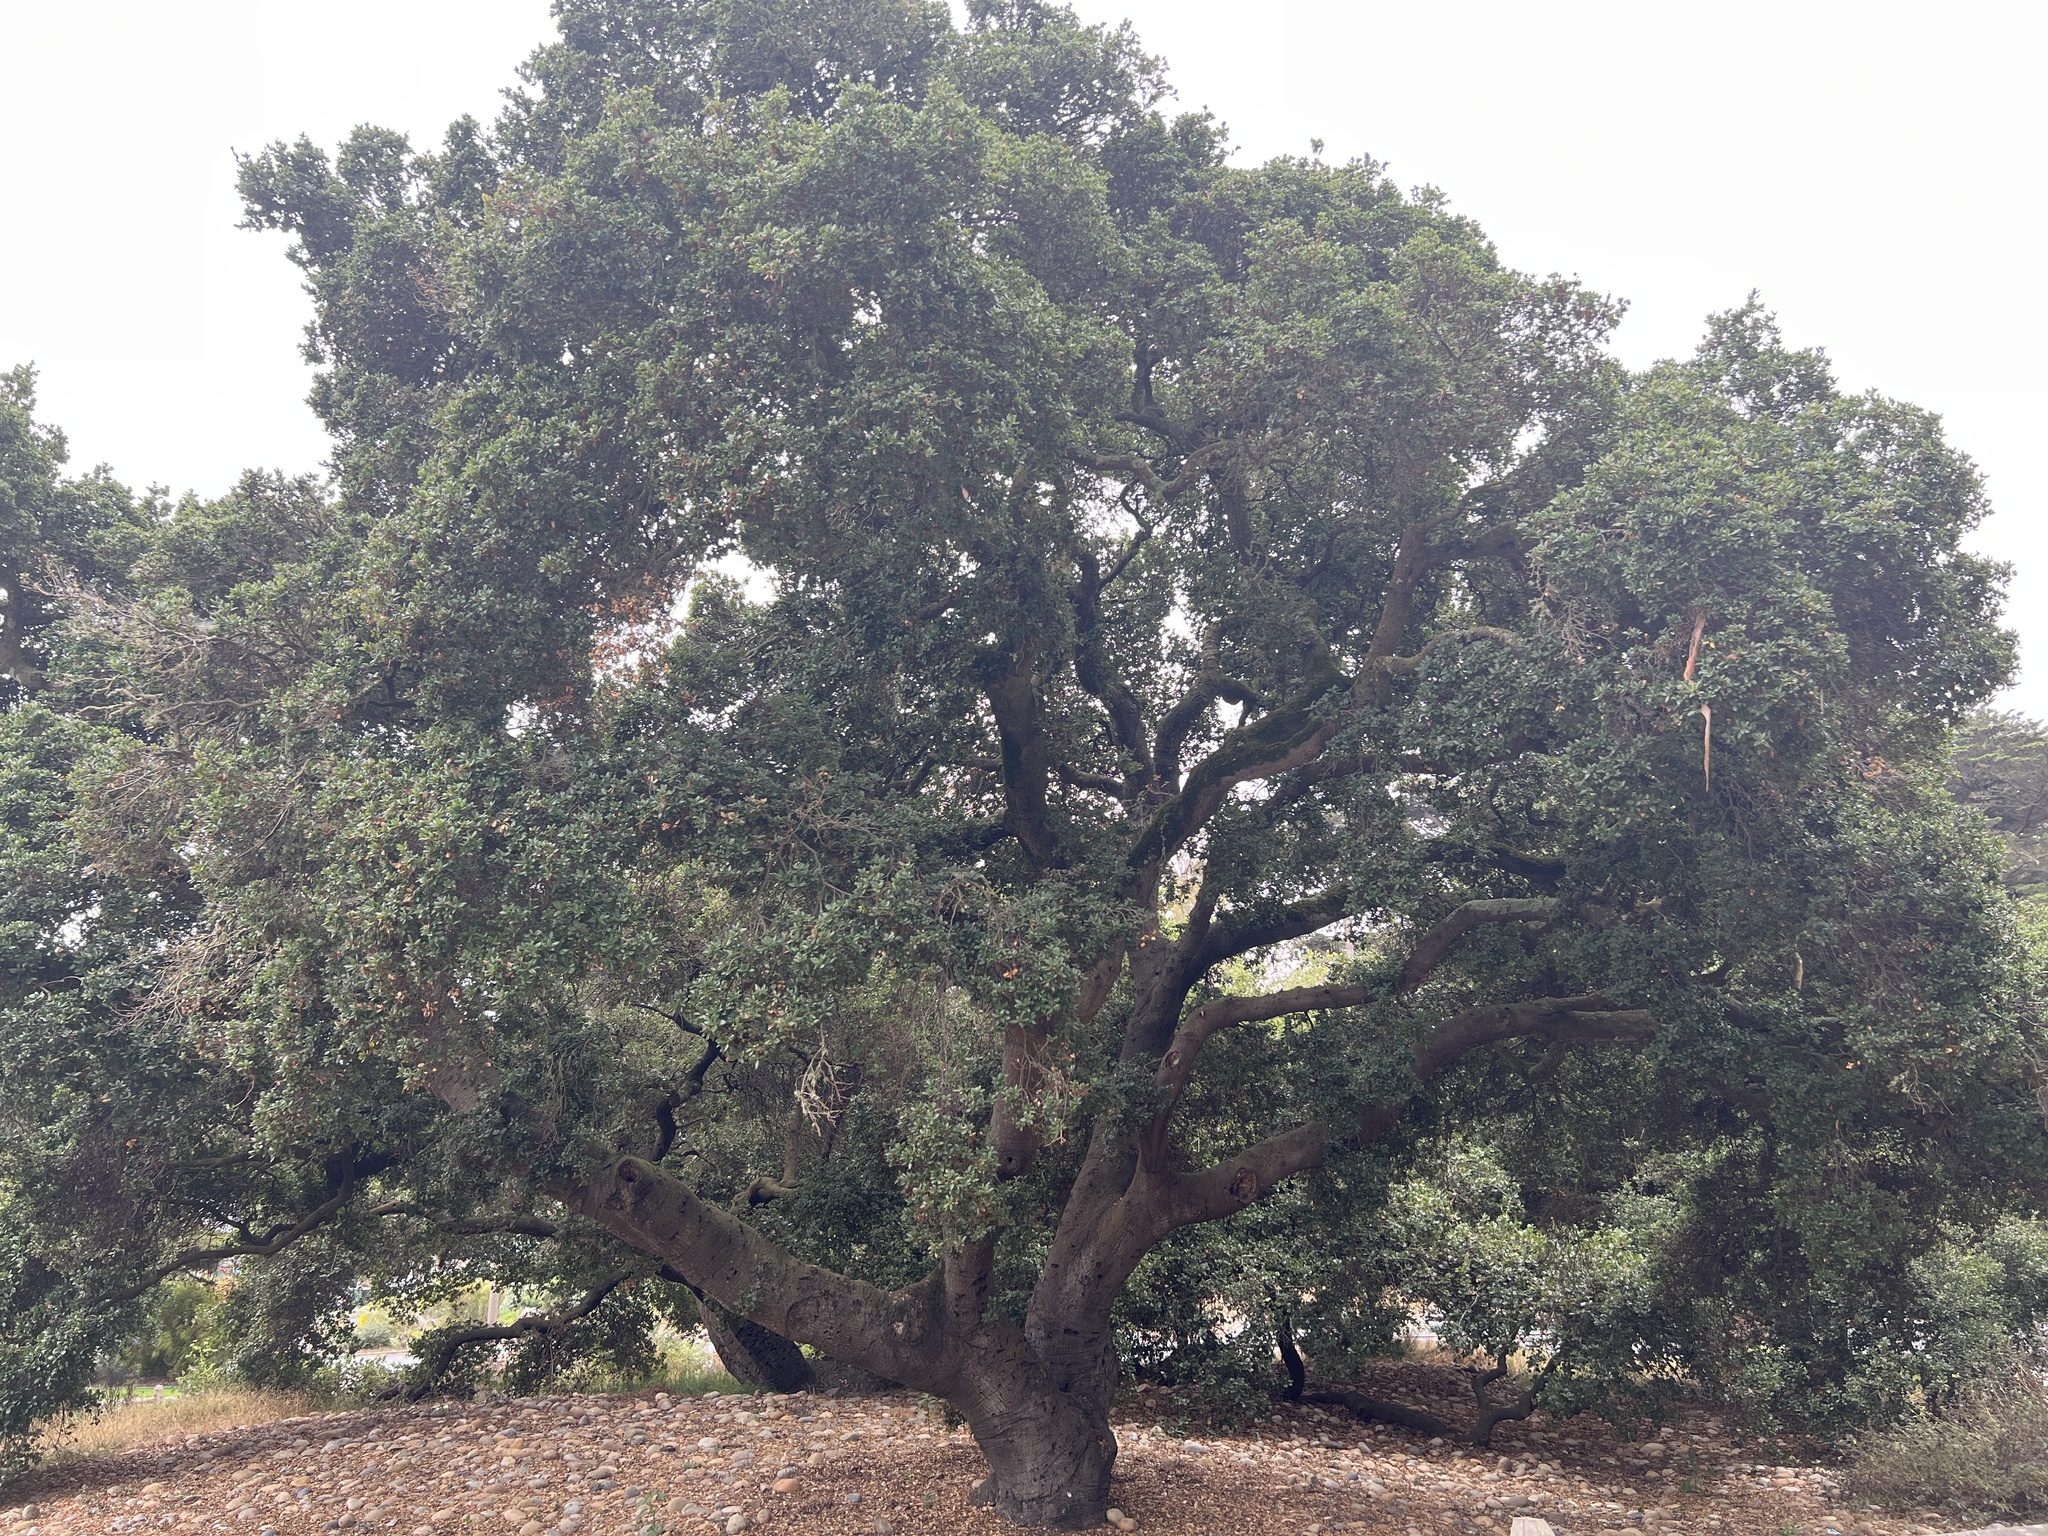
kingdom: Plantae
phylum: Tracheophyta
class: Magnoliopsida
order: Fagales
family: Fagaceae
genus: Quercus
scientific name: Quercus agrifolia
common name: California live oak
